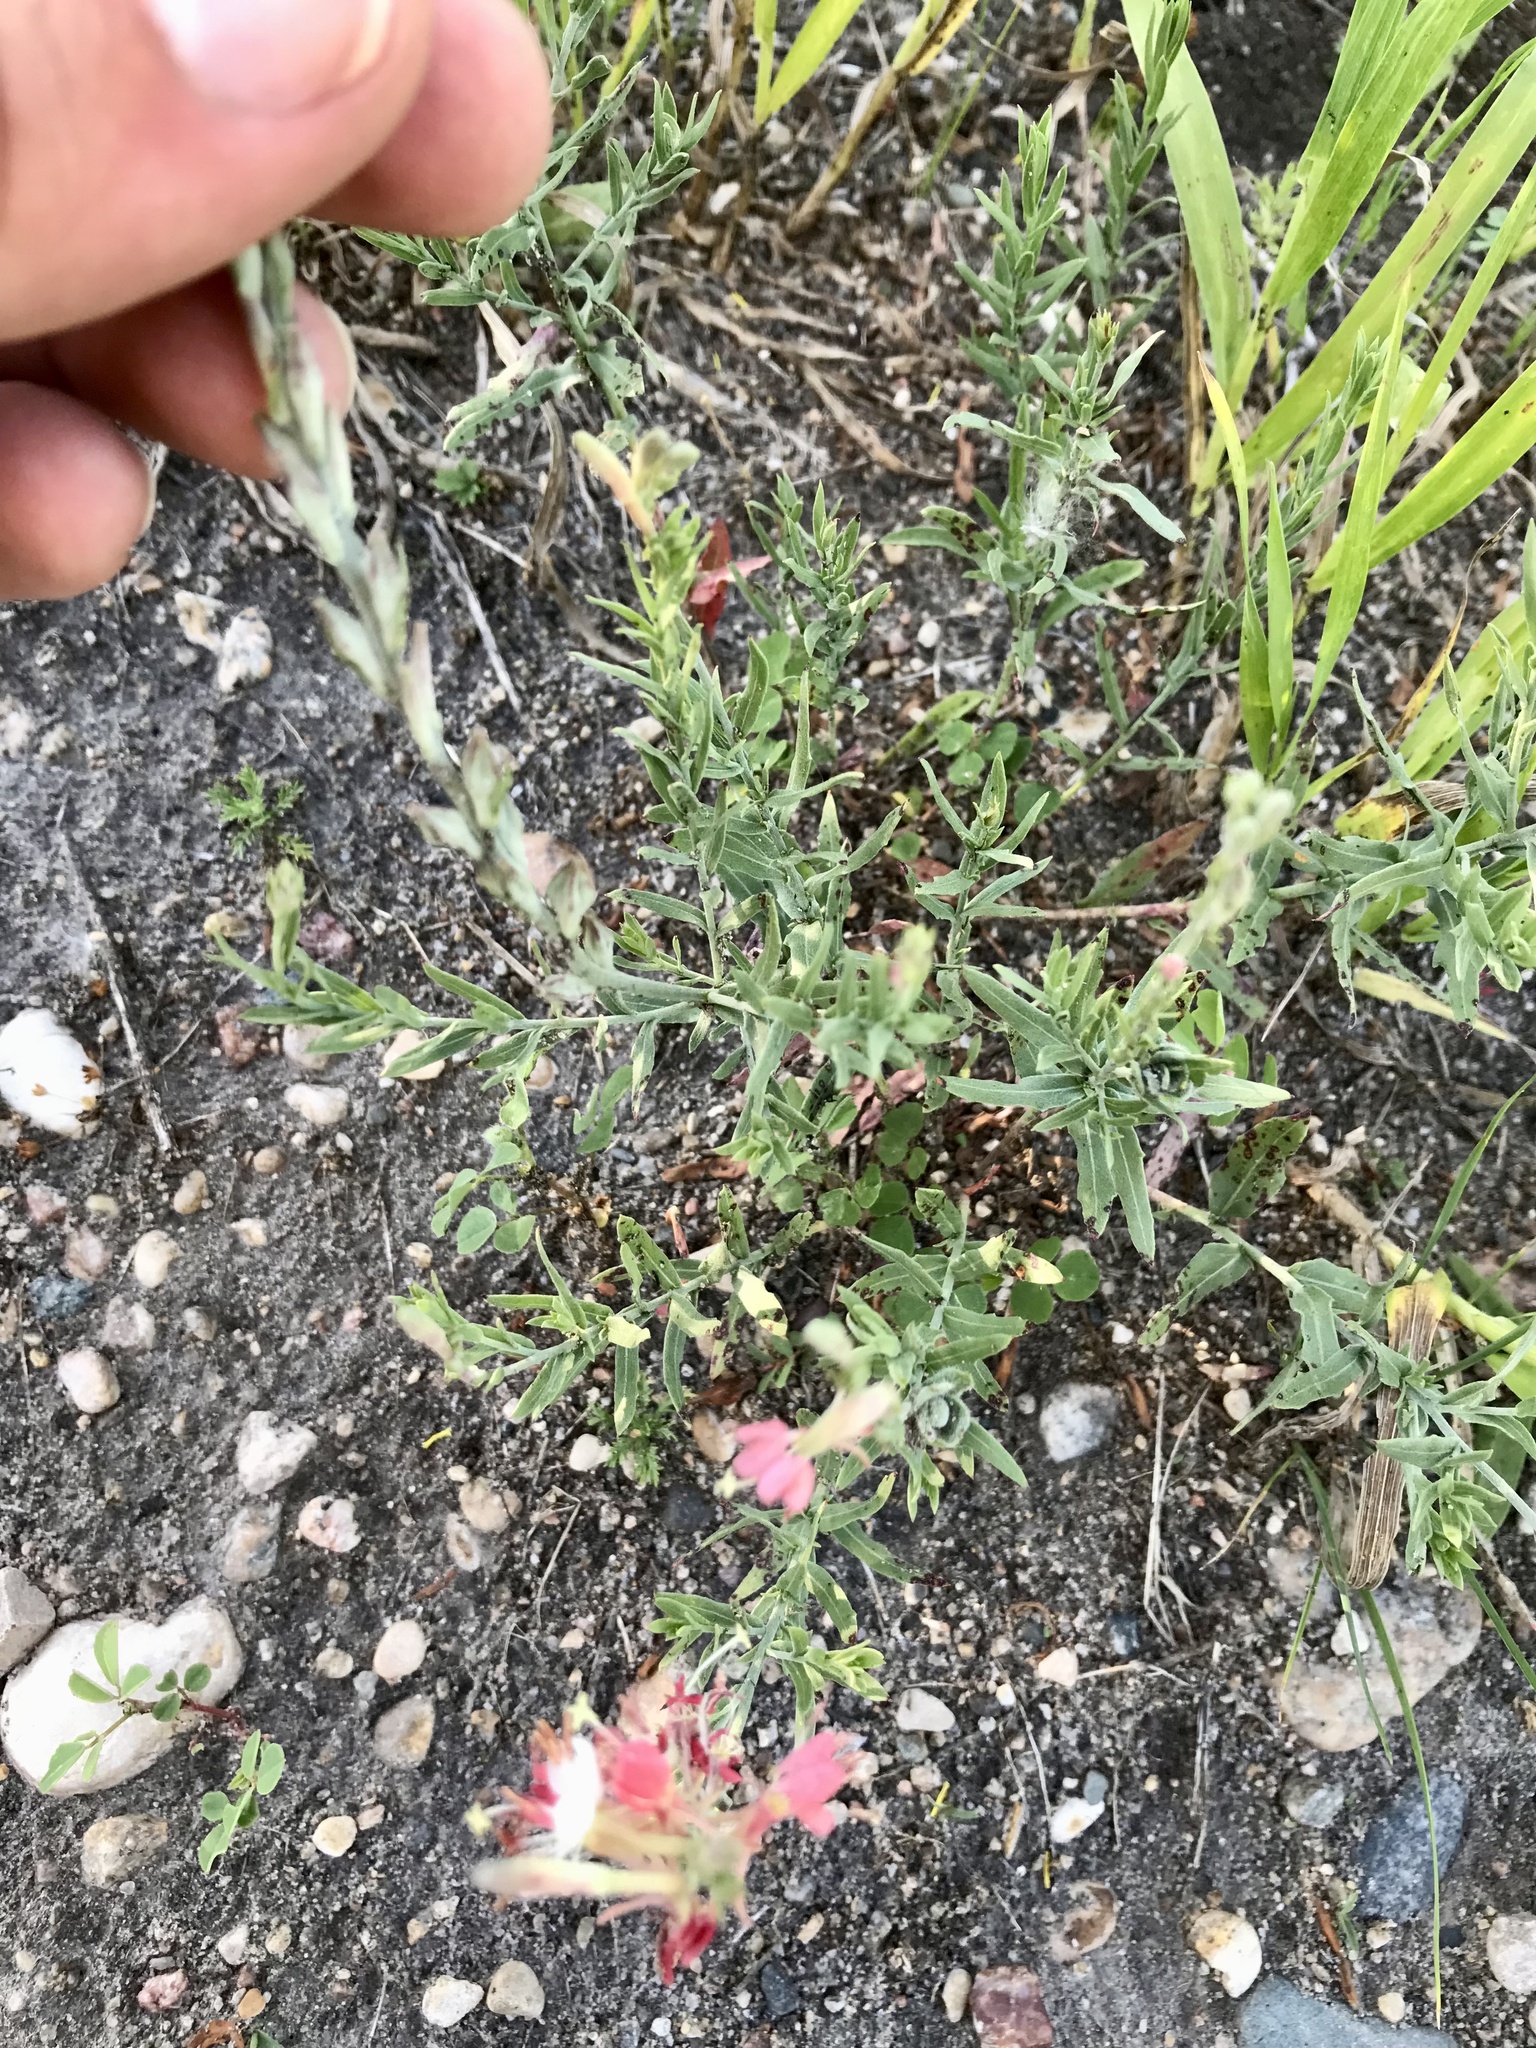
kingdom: Plantae
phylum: Tracheophyta
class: Magnoliopsida
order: Myrtales
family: Onagraceae
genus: Oenothera
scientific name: Oenothera suffrutescens
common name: Scarlet beeblossom
